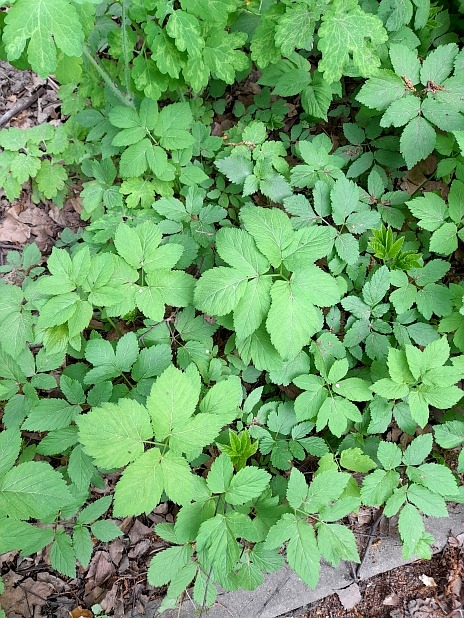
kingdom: Plantae
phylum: Tracheophyta
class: Magnoliopsida
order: Apiales
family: Apiaceae
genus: Aegopodium
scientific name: Aegopodium podagraria
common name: Ground-elder
